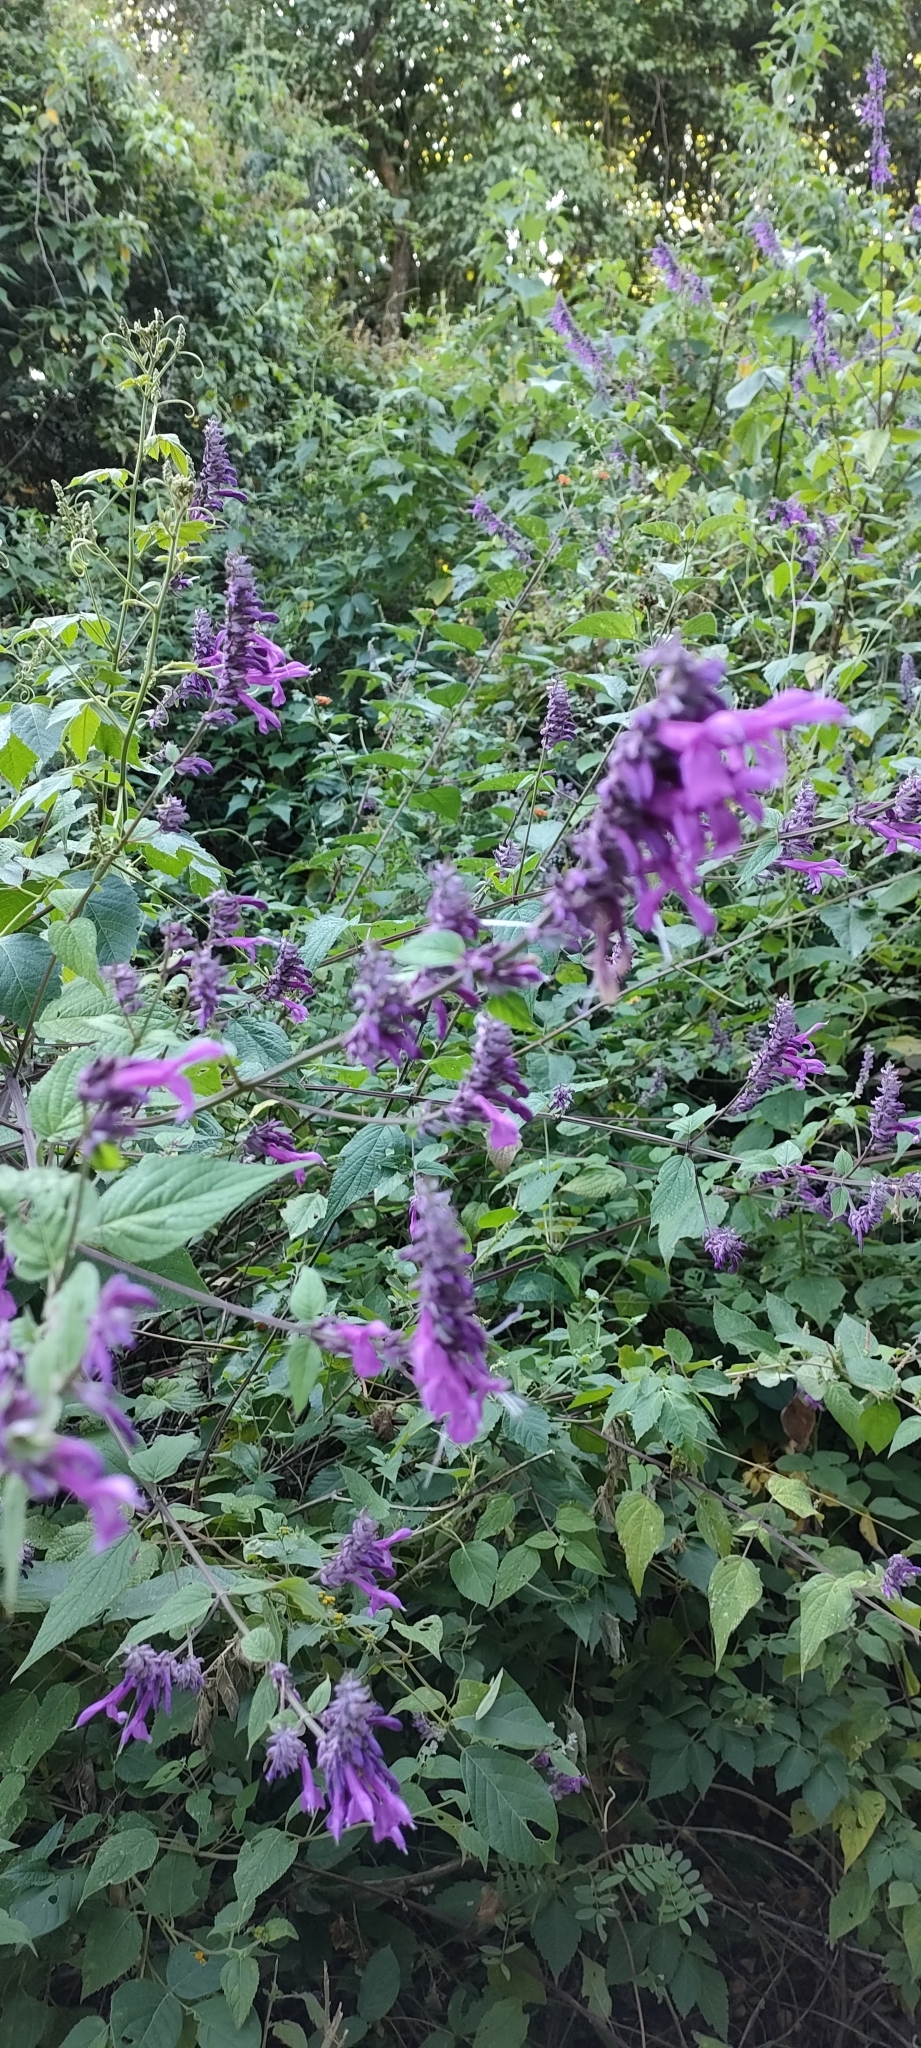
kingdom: Plantae
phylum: Tracheophyta
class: Magnoliopsida
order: Lamiales
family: Lamiaceae
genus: Salvia
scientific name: Salvia purpurea
